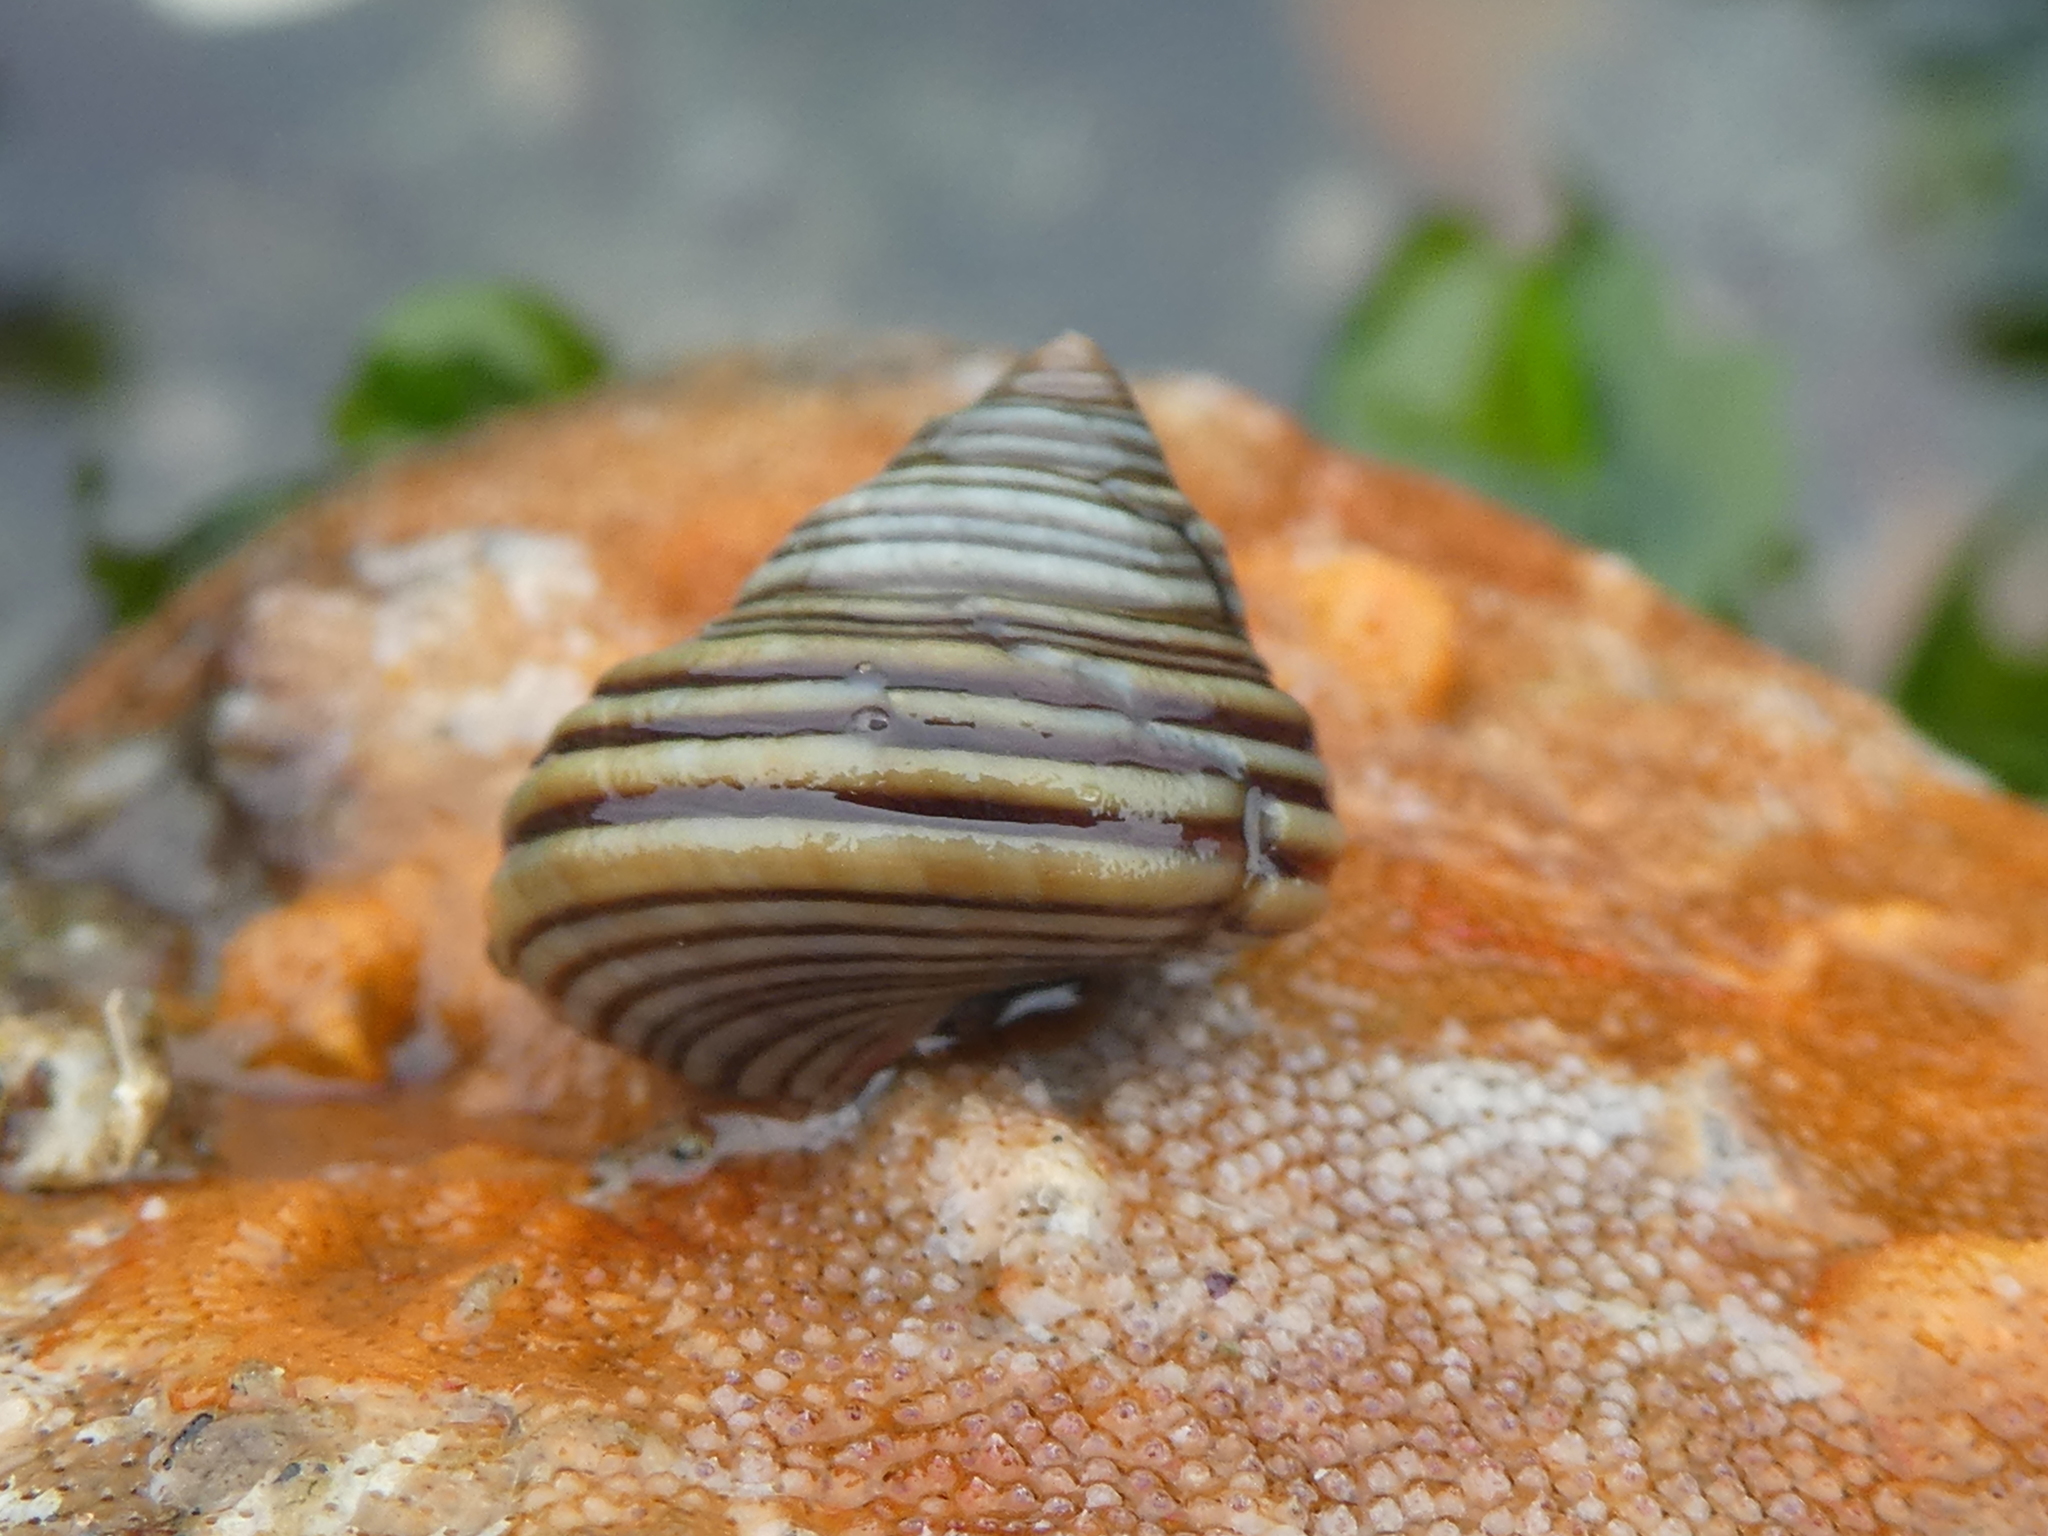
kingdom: Animalia
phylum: Mollusca
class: Gastropoda
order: Trochida
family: Calliostomatidae
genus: Calliostoma
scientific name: Calliostoma ligatum
